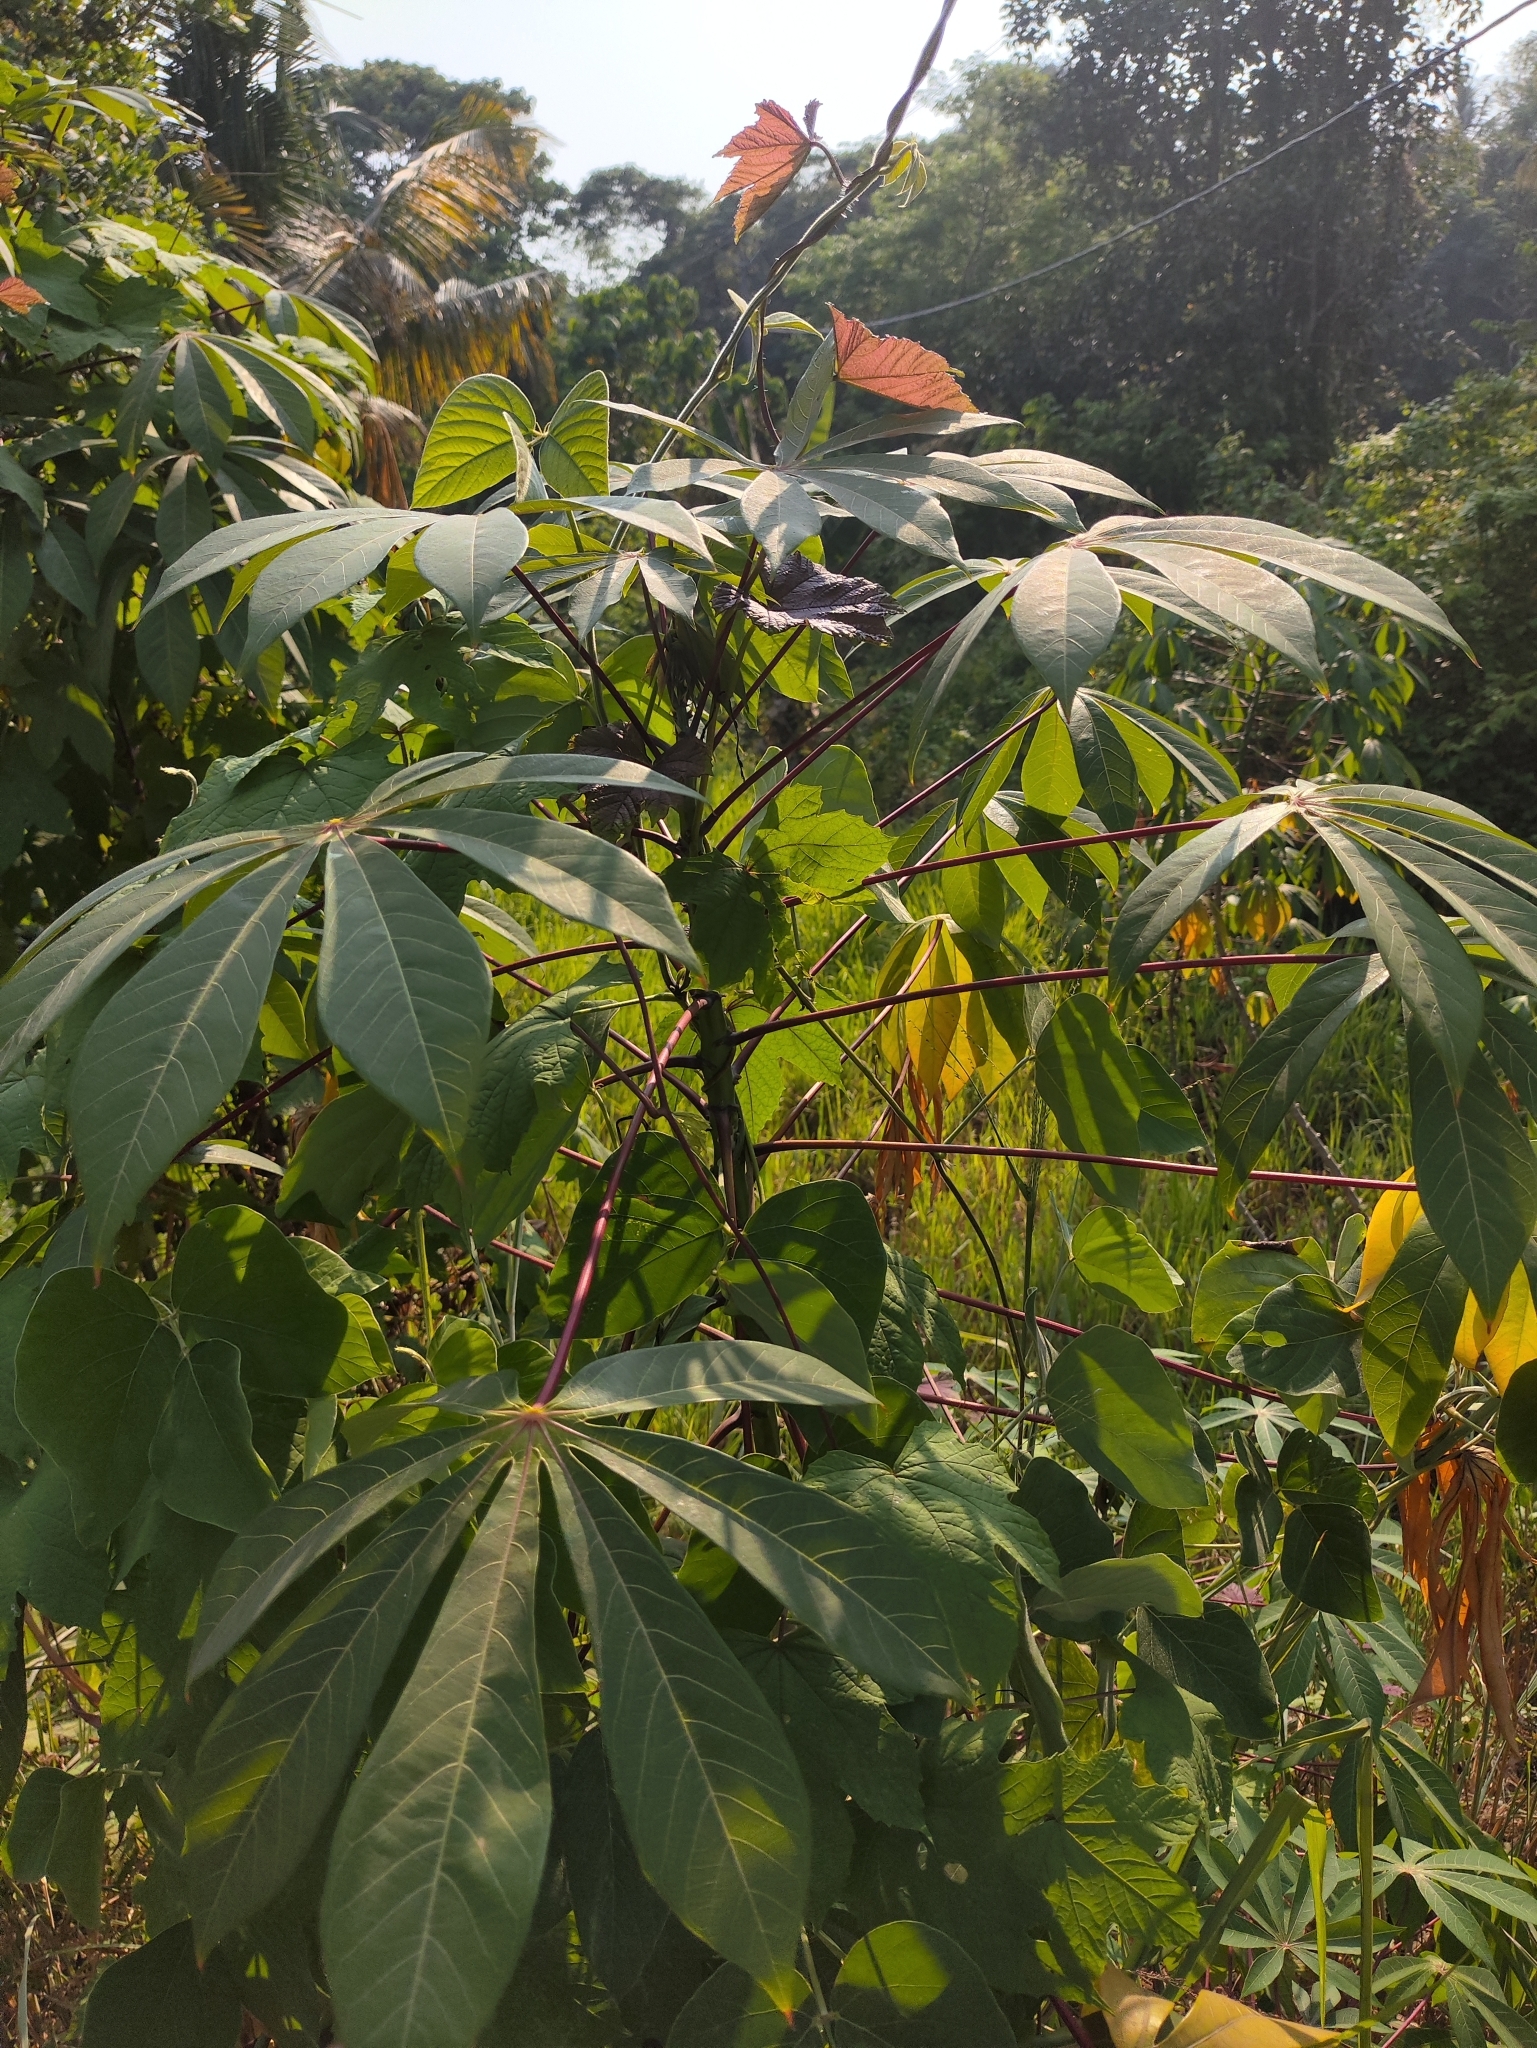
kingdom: Plantae
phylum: Tracheophyta
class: Magnoliopsida
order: Malpighiales
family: Euphorbiaceae
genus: Manihot
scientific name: Manihot esculenta
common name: Cassava
